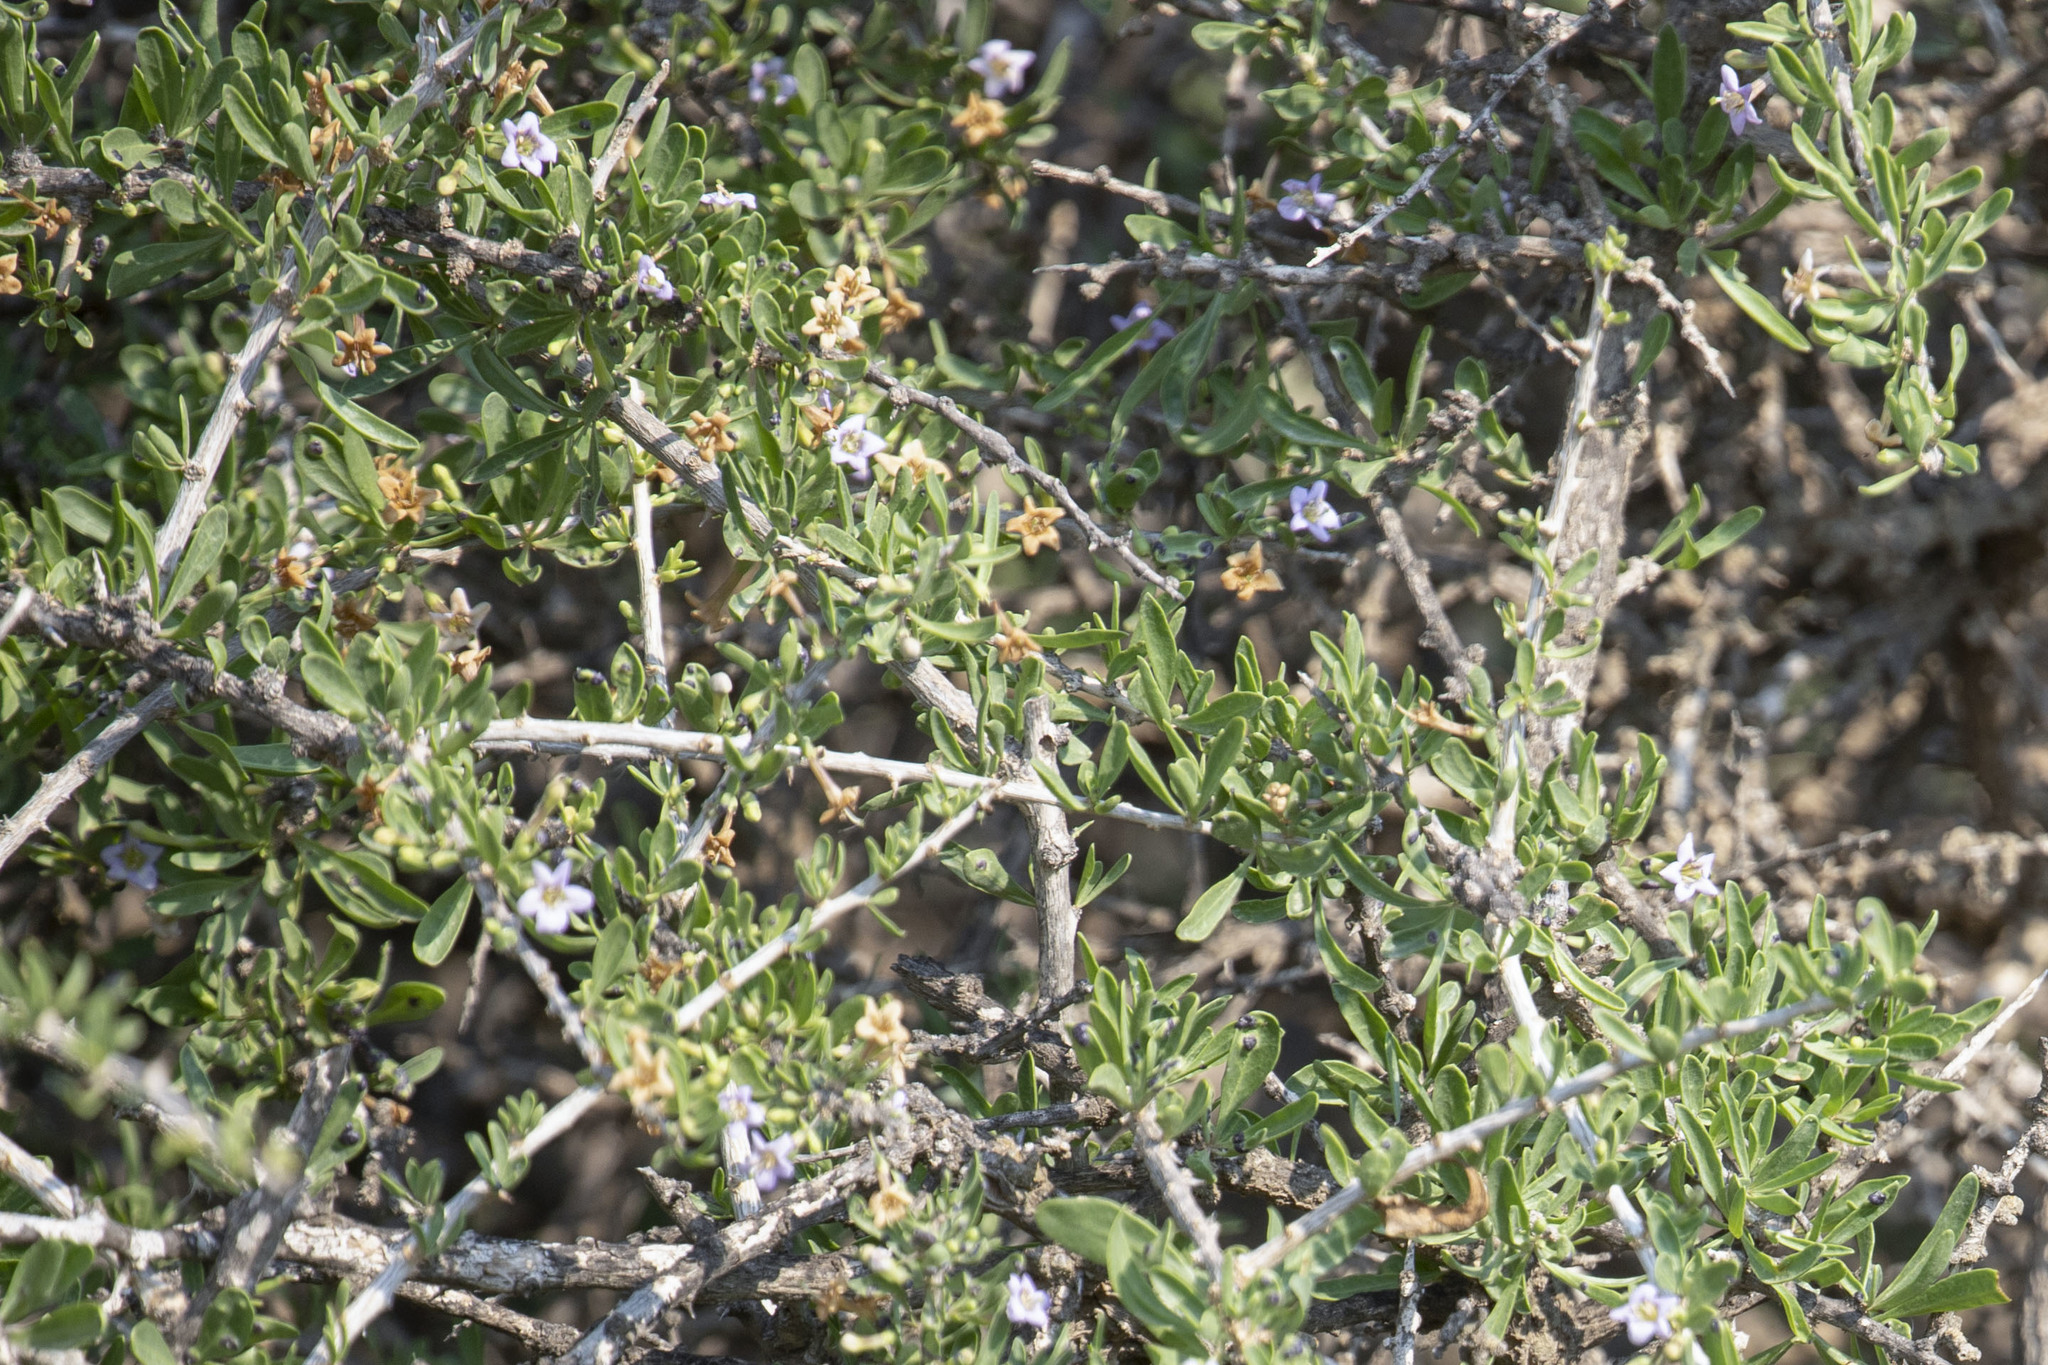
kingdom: Plantae
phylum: Tracheophyta
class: Magnoliopsida
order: Solanales
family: Solanaceae
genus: Lycium
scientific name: Lycium shawii
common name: Boxthorn
